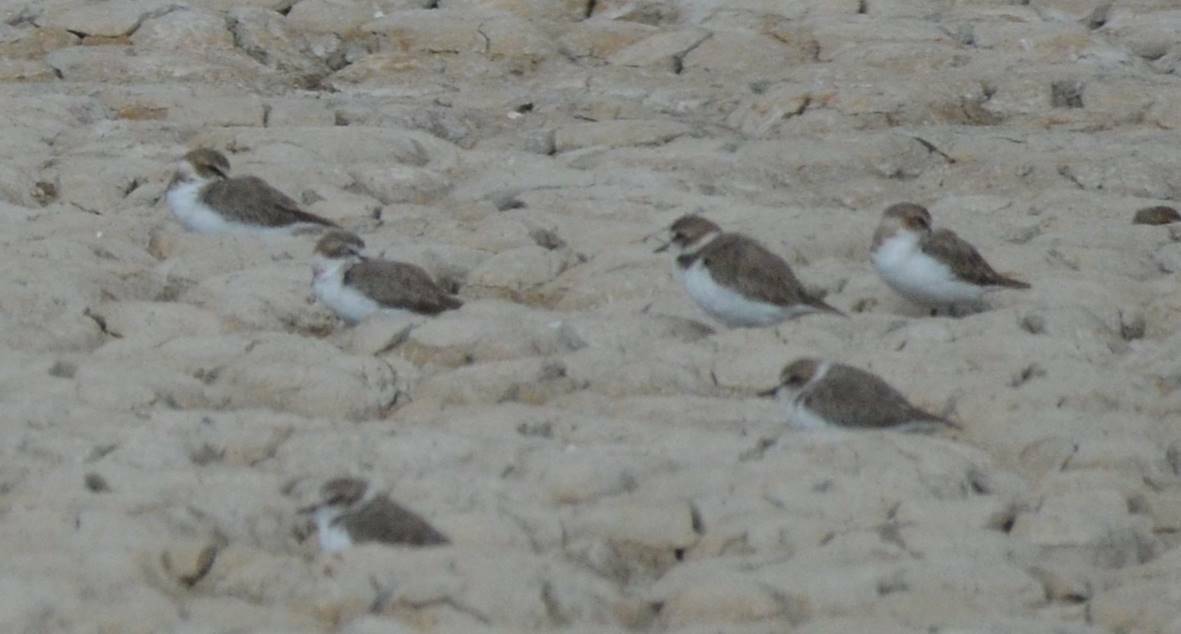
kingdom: Animalia
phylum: Chordata
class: Aves
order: Charadriiformes
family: Charadriidae
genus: Charadrius
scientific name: Charadrius alexandrinus
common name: Kentish plover
